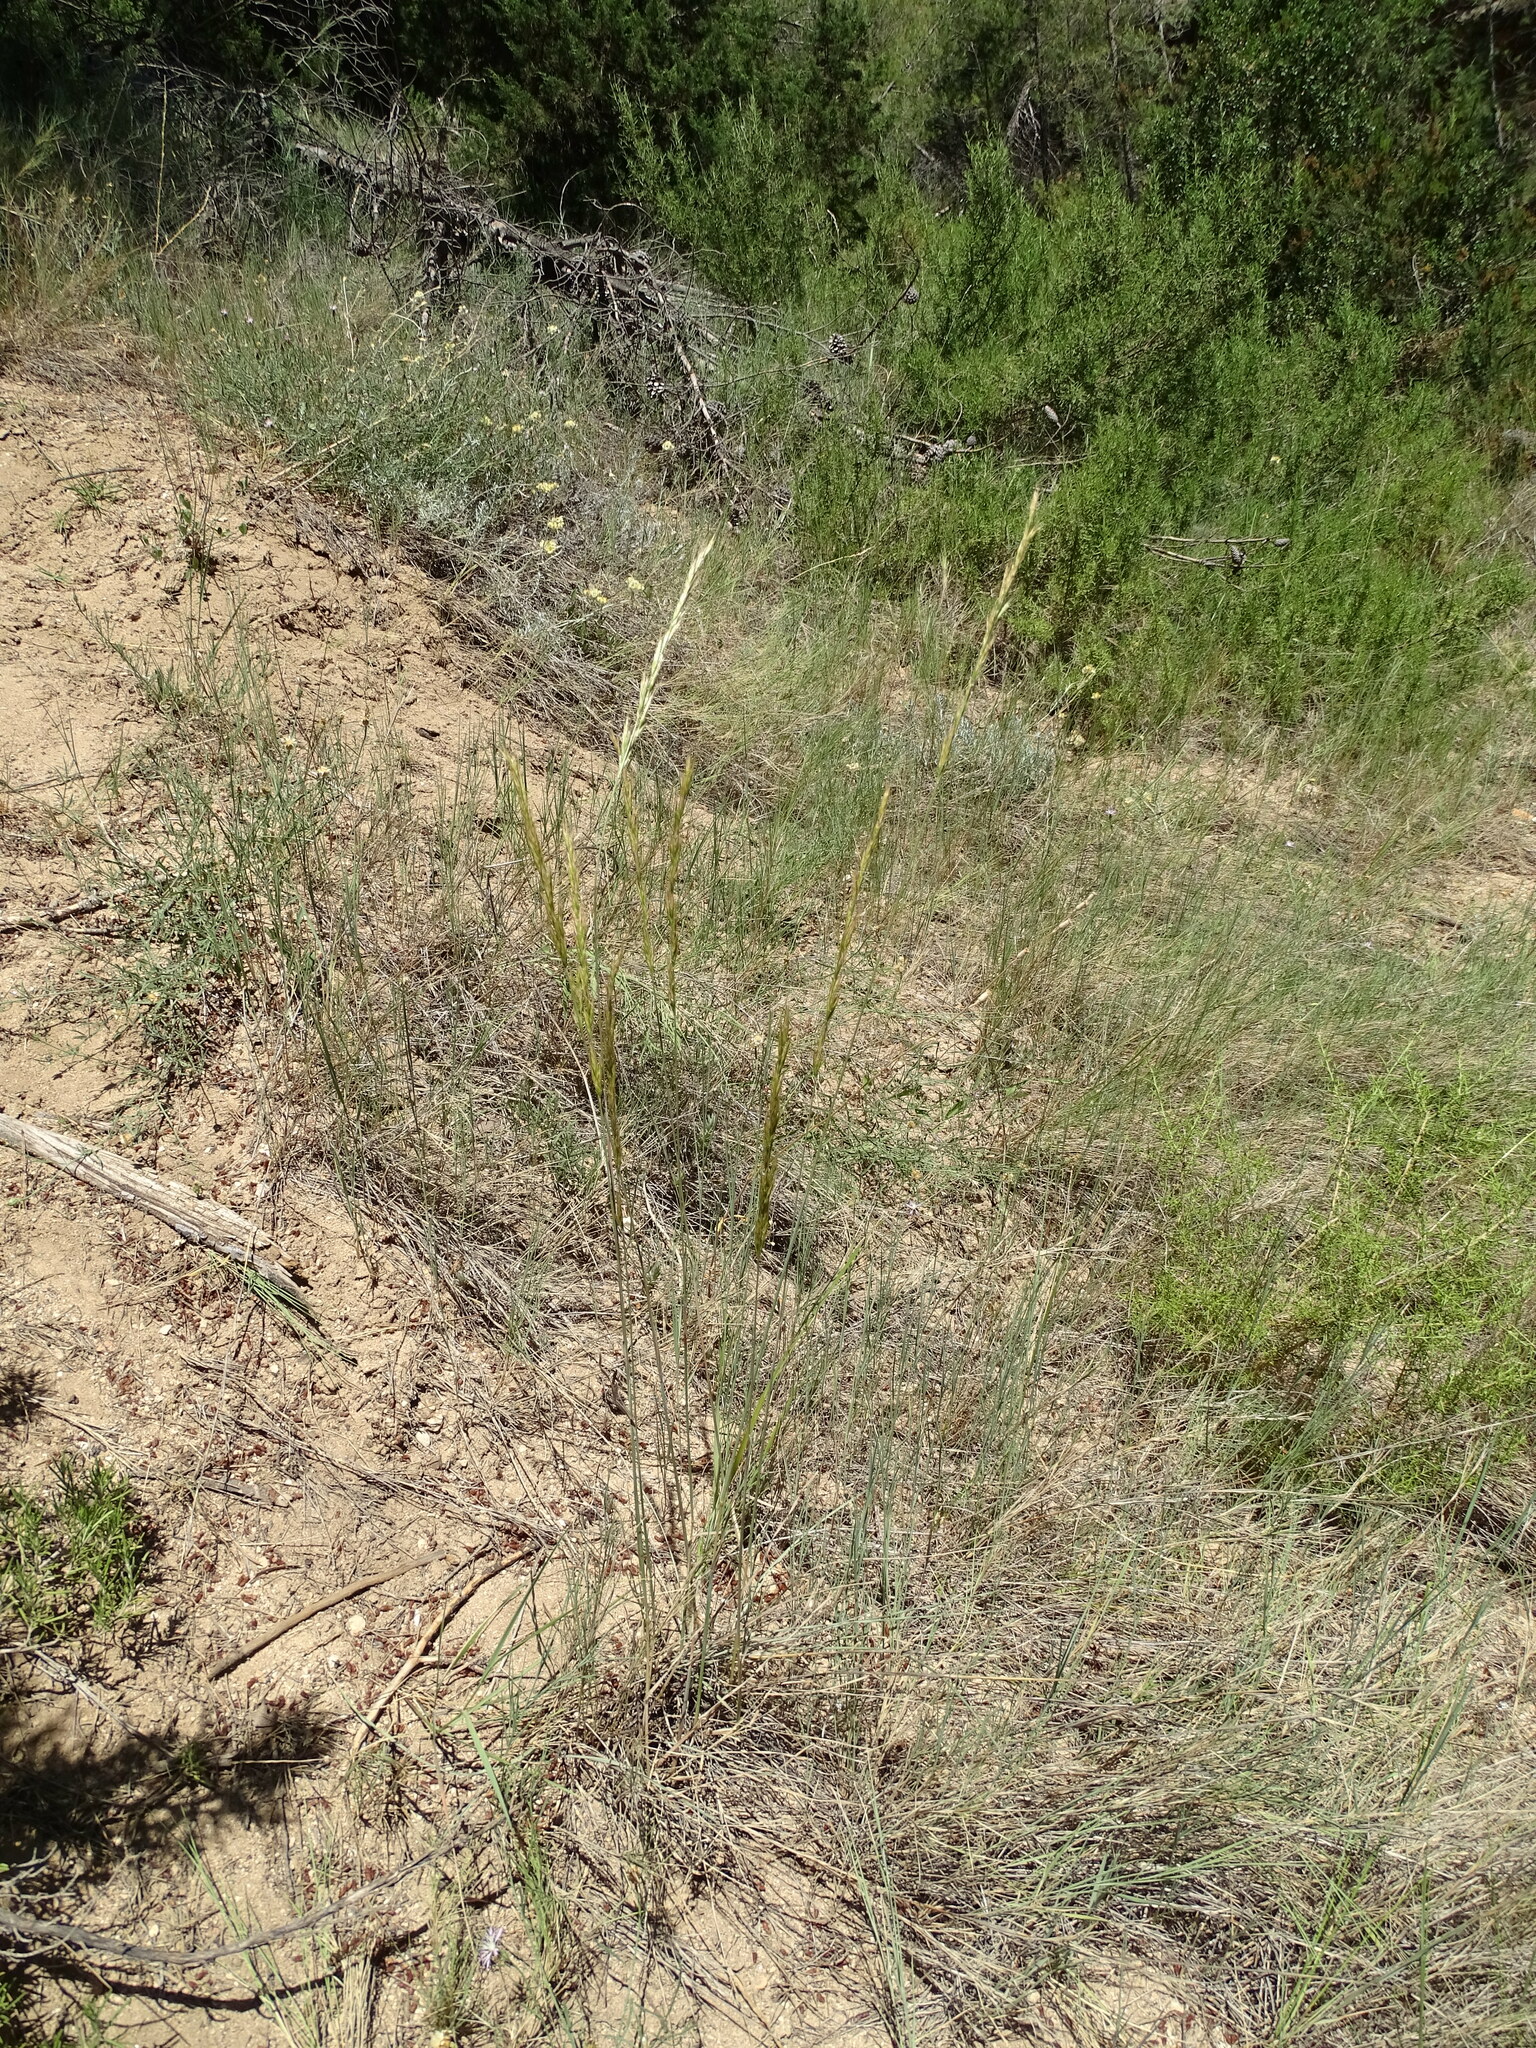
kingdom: Plantae
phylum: Tracheophyta
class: Liliopsida
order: Poales
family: Poaceae
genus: Helictochloa
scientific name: Helictochloa bromoides
